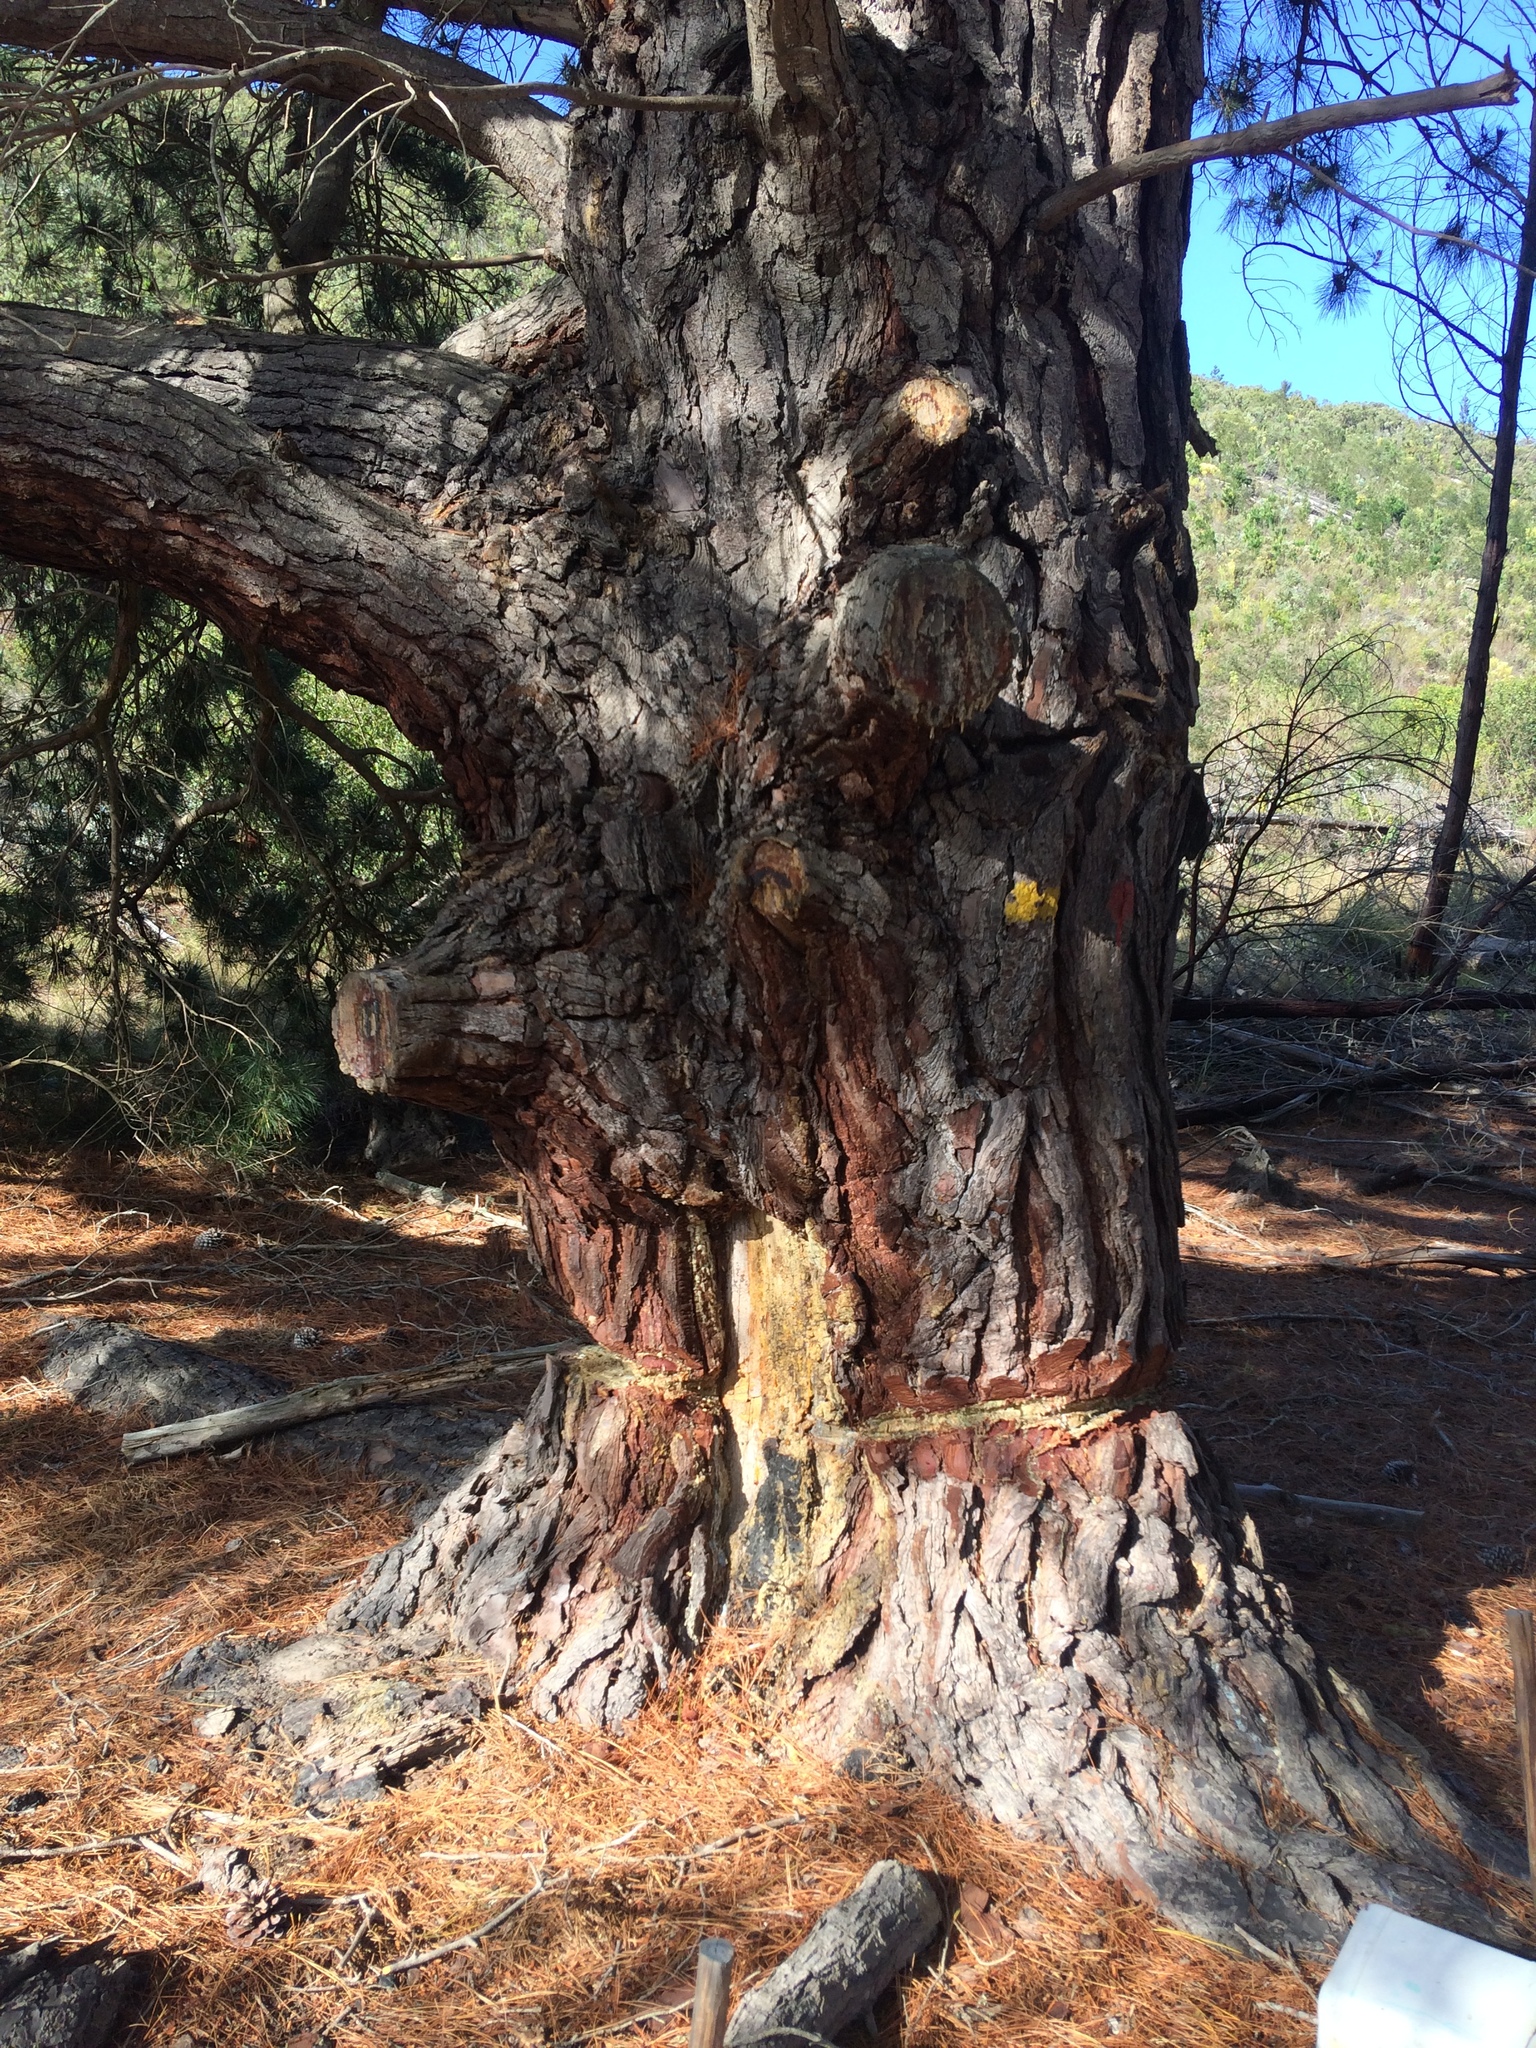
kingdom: Plantae
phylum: Tracheophyta
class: Pinopsida
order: Pinales
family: Pinaceae
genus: Pinus
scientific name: Pinus elliottii
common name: Slash pine
